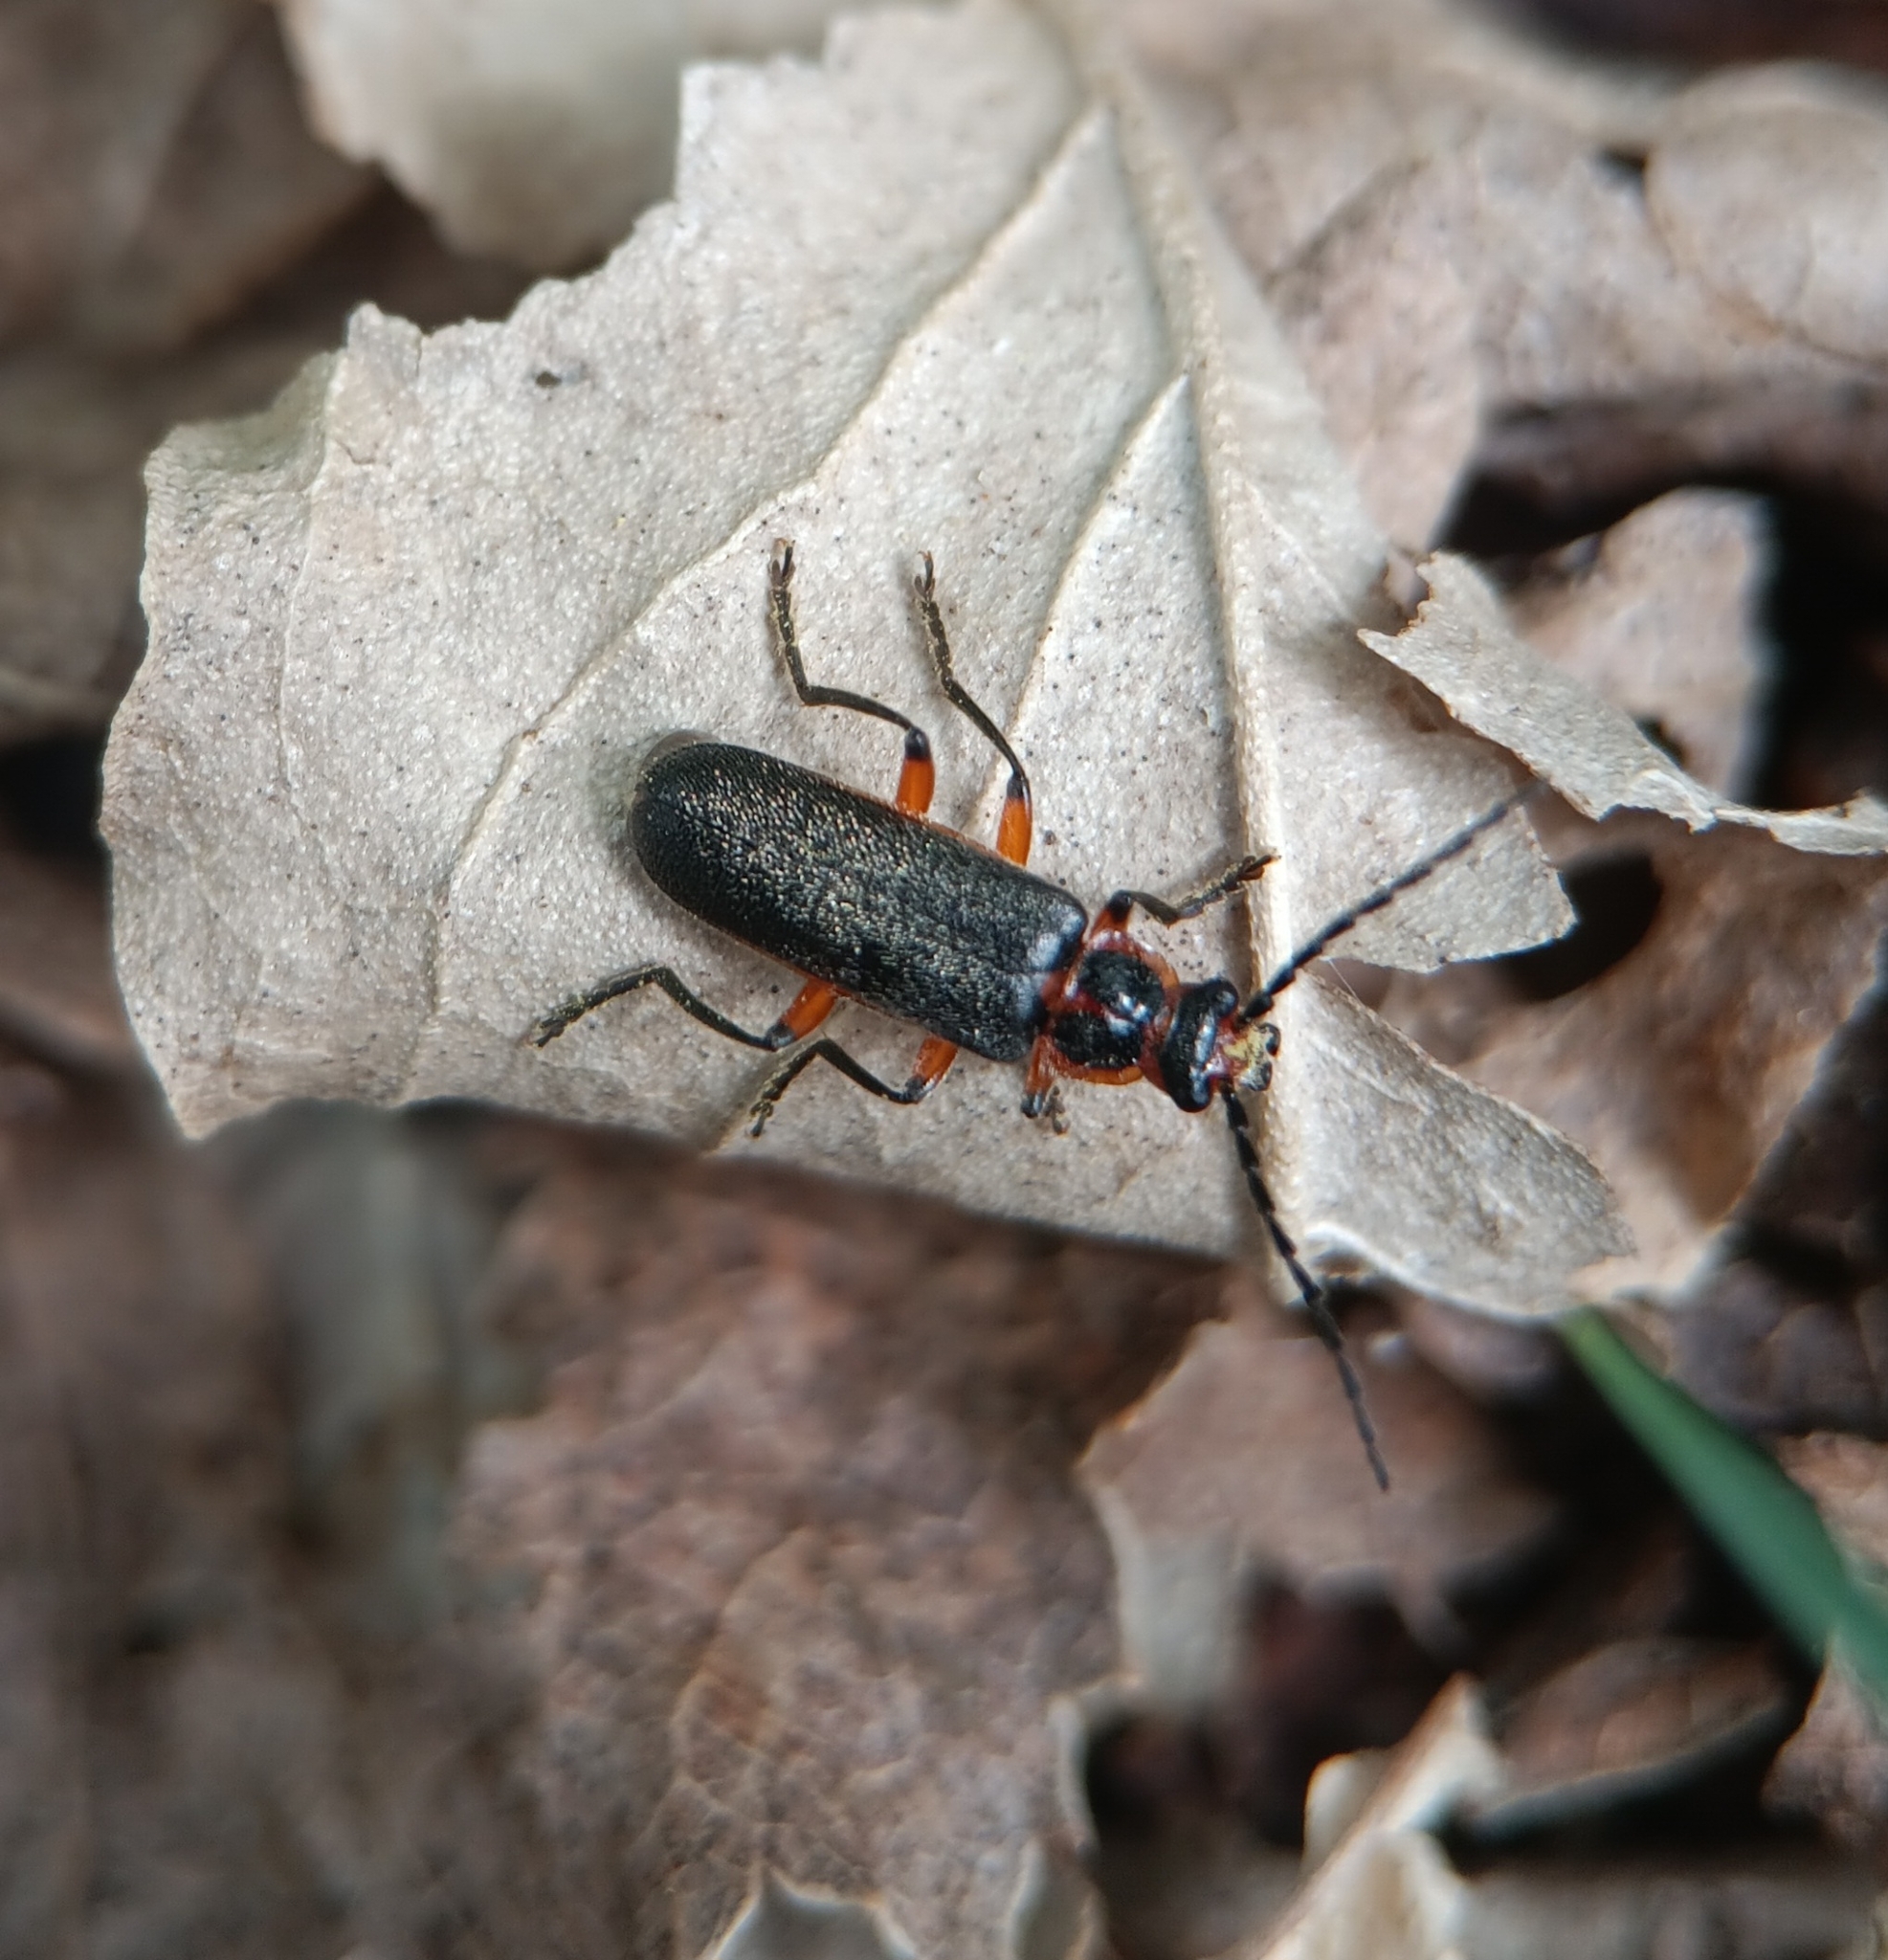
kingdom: Animalia
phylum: Arthropoda
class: Insecta
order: Coleoptera
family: Cantharidae
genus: Atalantycha
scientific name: Atalantycha bilineata
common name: Two-lined leatherwing
